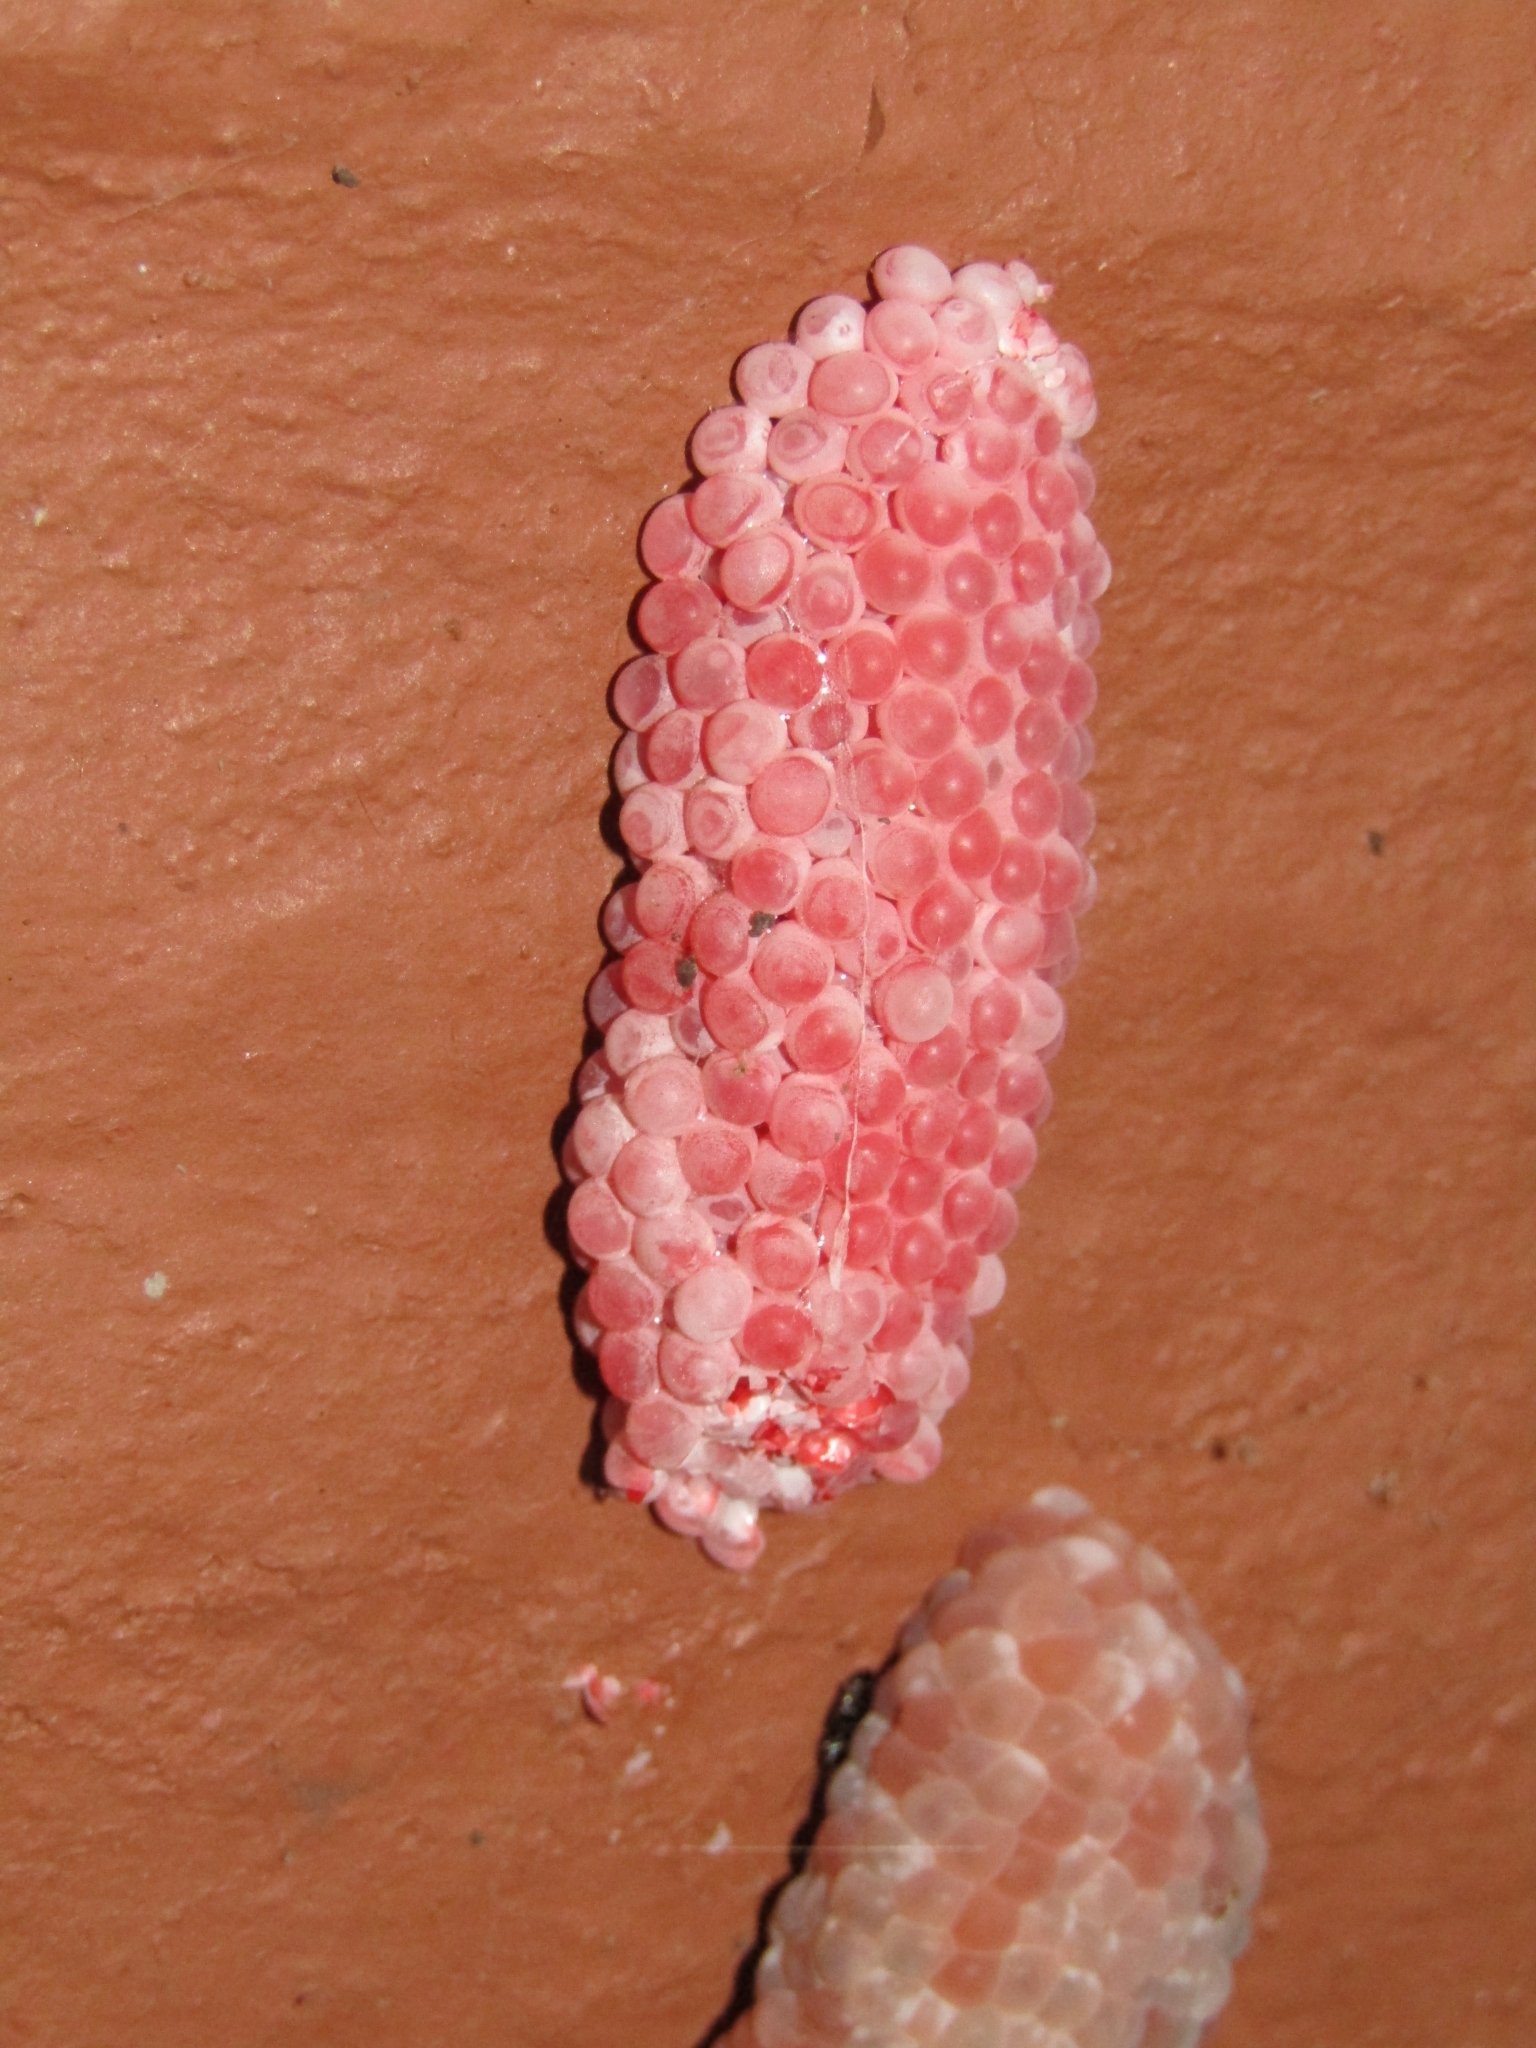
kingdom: Animalia
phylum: Mollusca
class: Gastropoda
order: Architaenioglossa
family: Ampullariidae
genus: Pomacea
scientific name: Pomacea canaliculata
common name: Channeled applesnail
